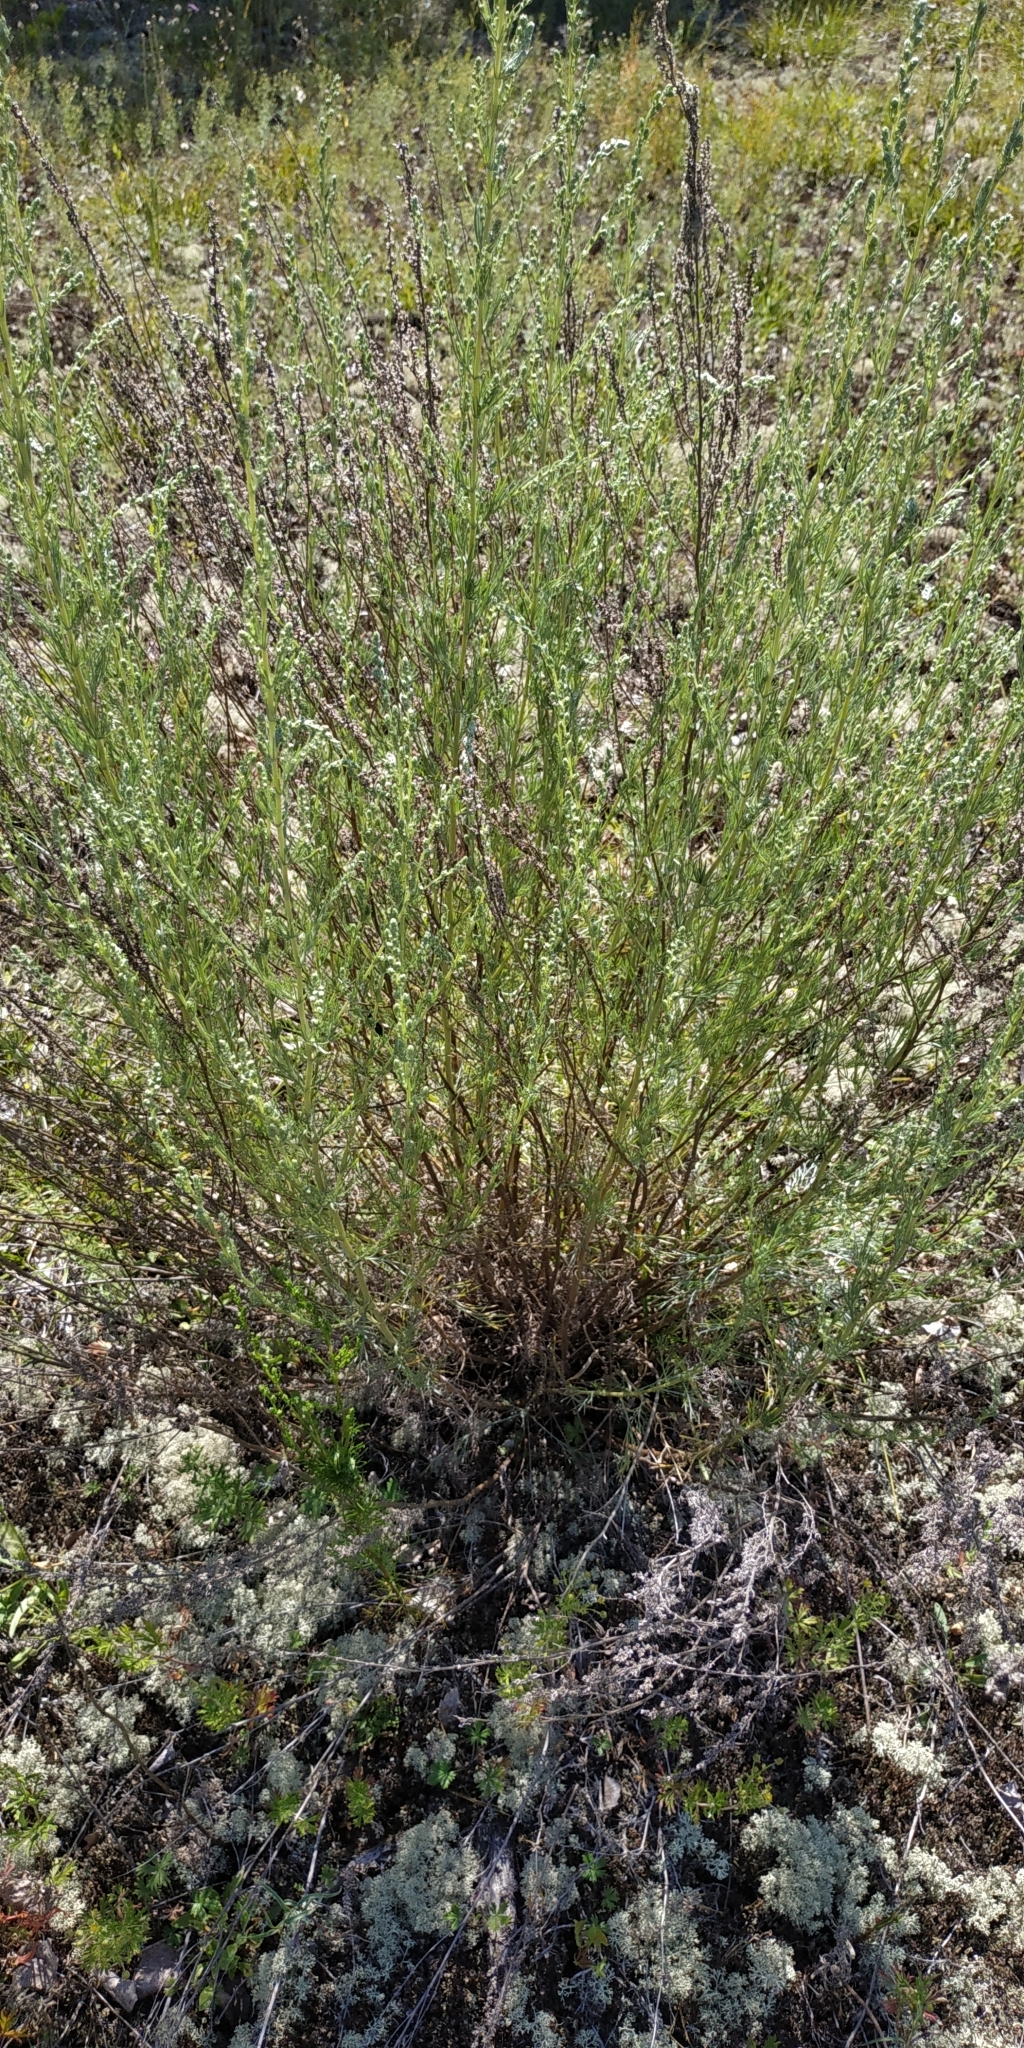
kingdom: Plantae
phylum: Tracheophyta
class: Magnoliopsida
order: Asterales
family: Asteraceae
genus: Artemisia
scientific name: Artemisia pubescens
